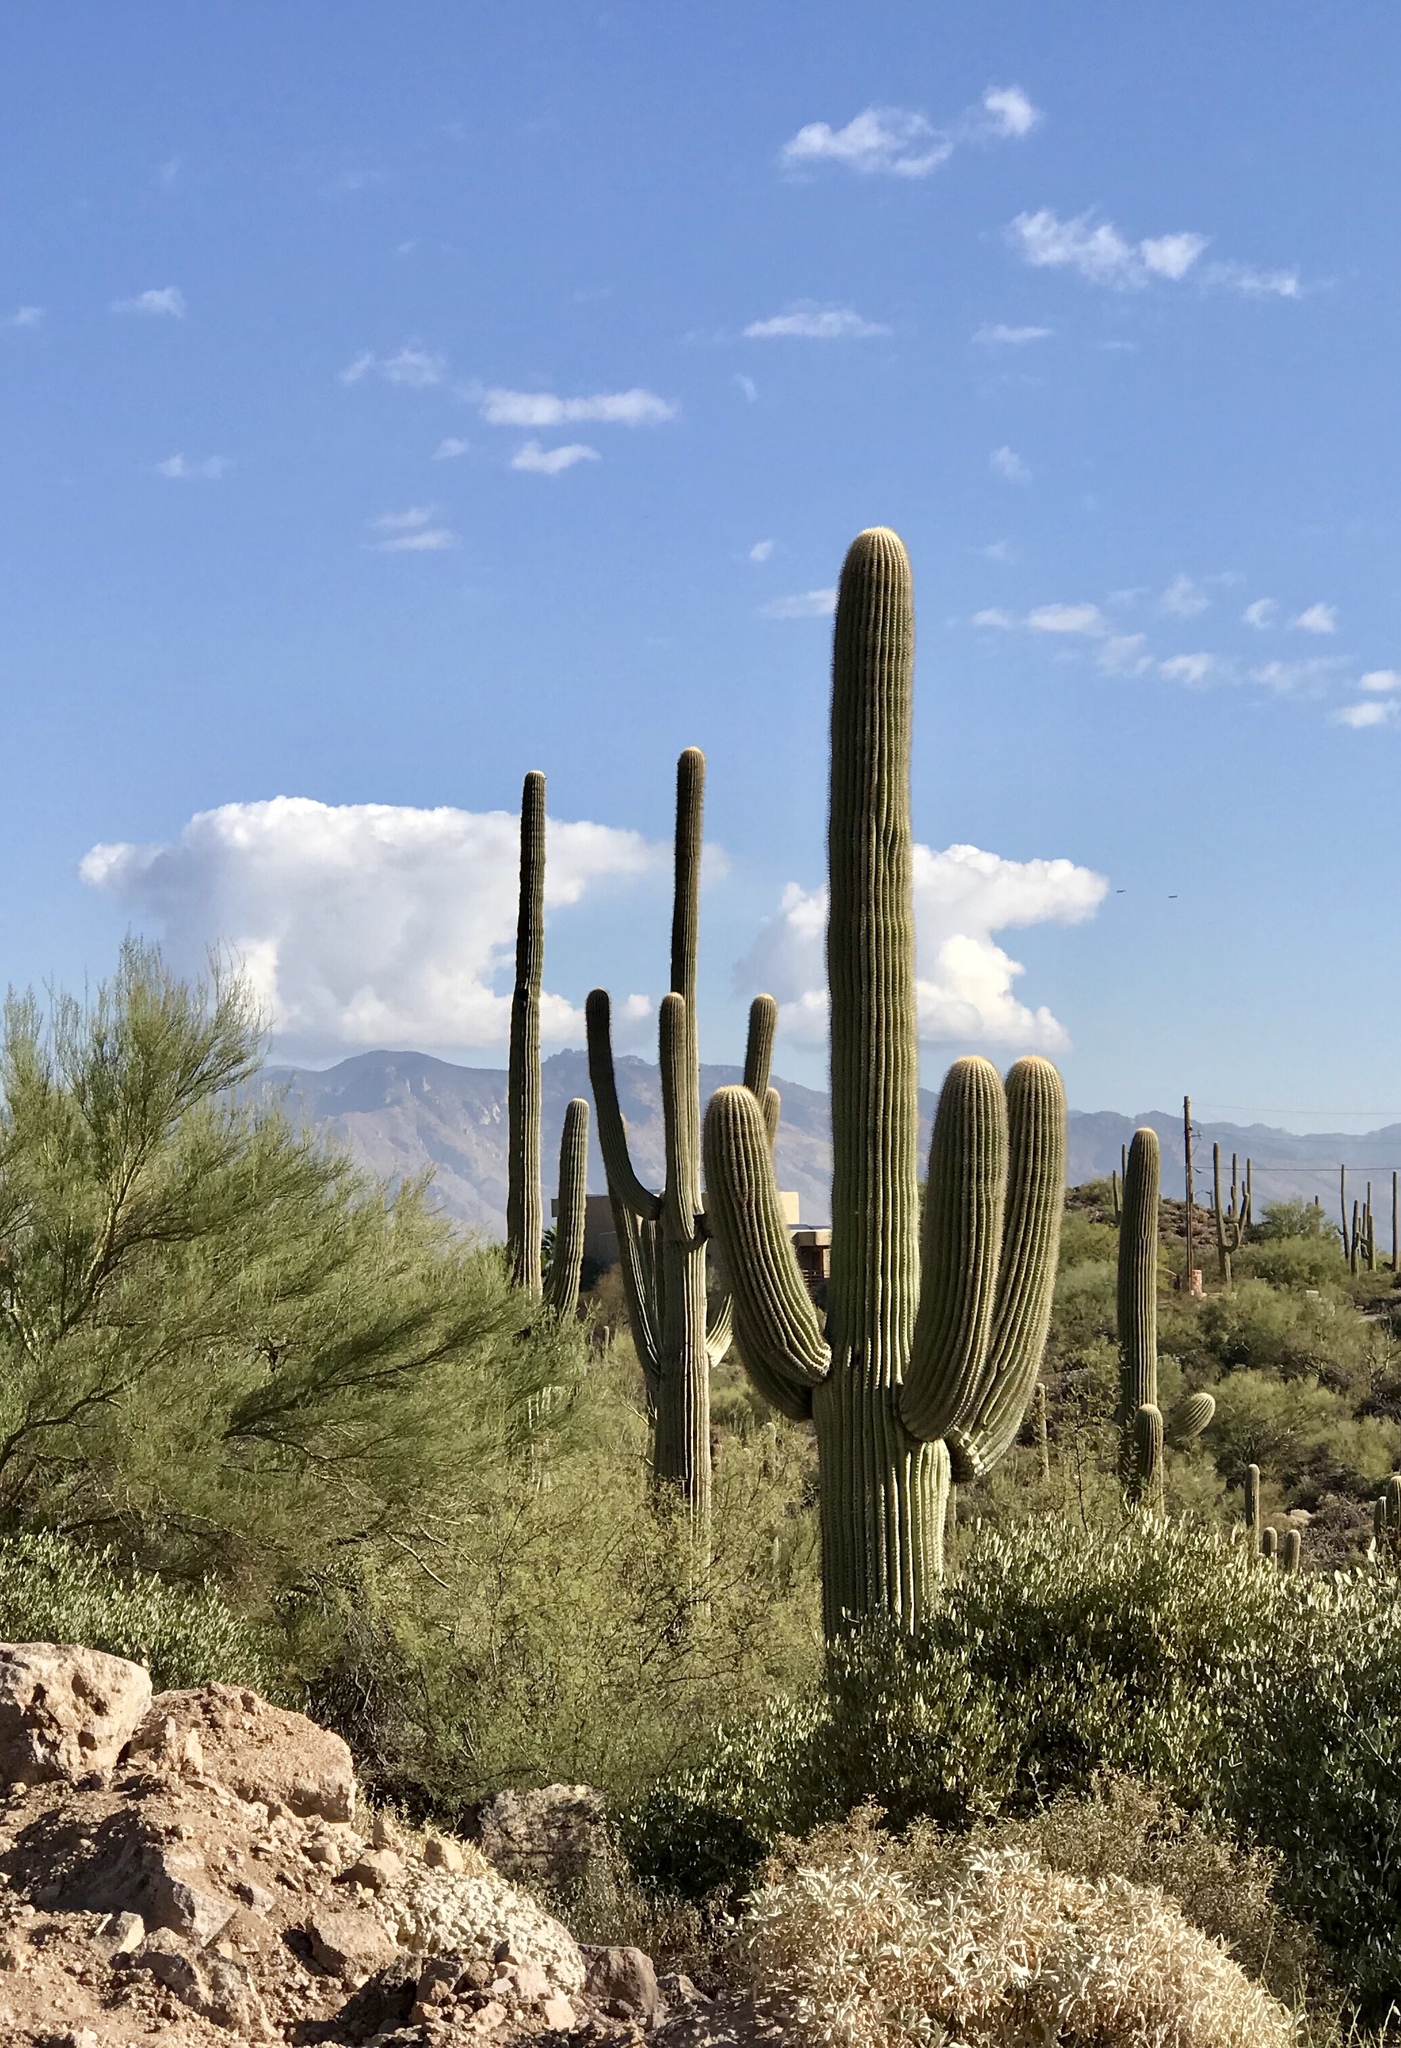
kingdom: Plantae
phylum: Tracheophyta
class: Magnoliopsida
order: Caryophyllales
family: Cactaceae
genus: Carnegiea
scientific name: Carnegiea gigantea
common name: Saguaro
